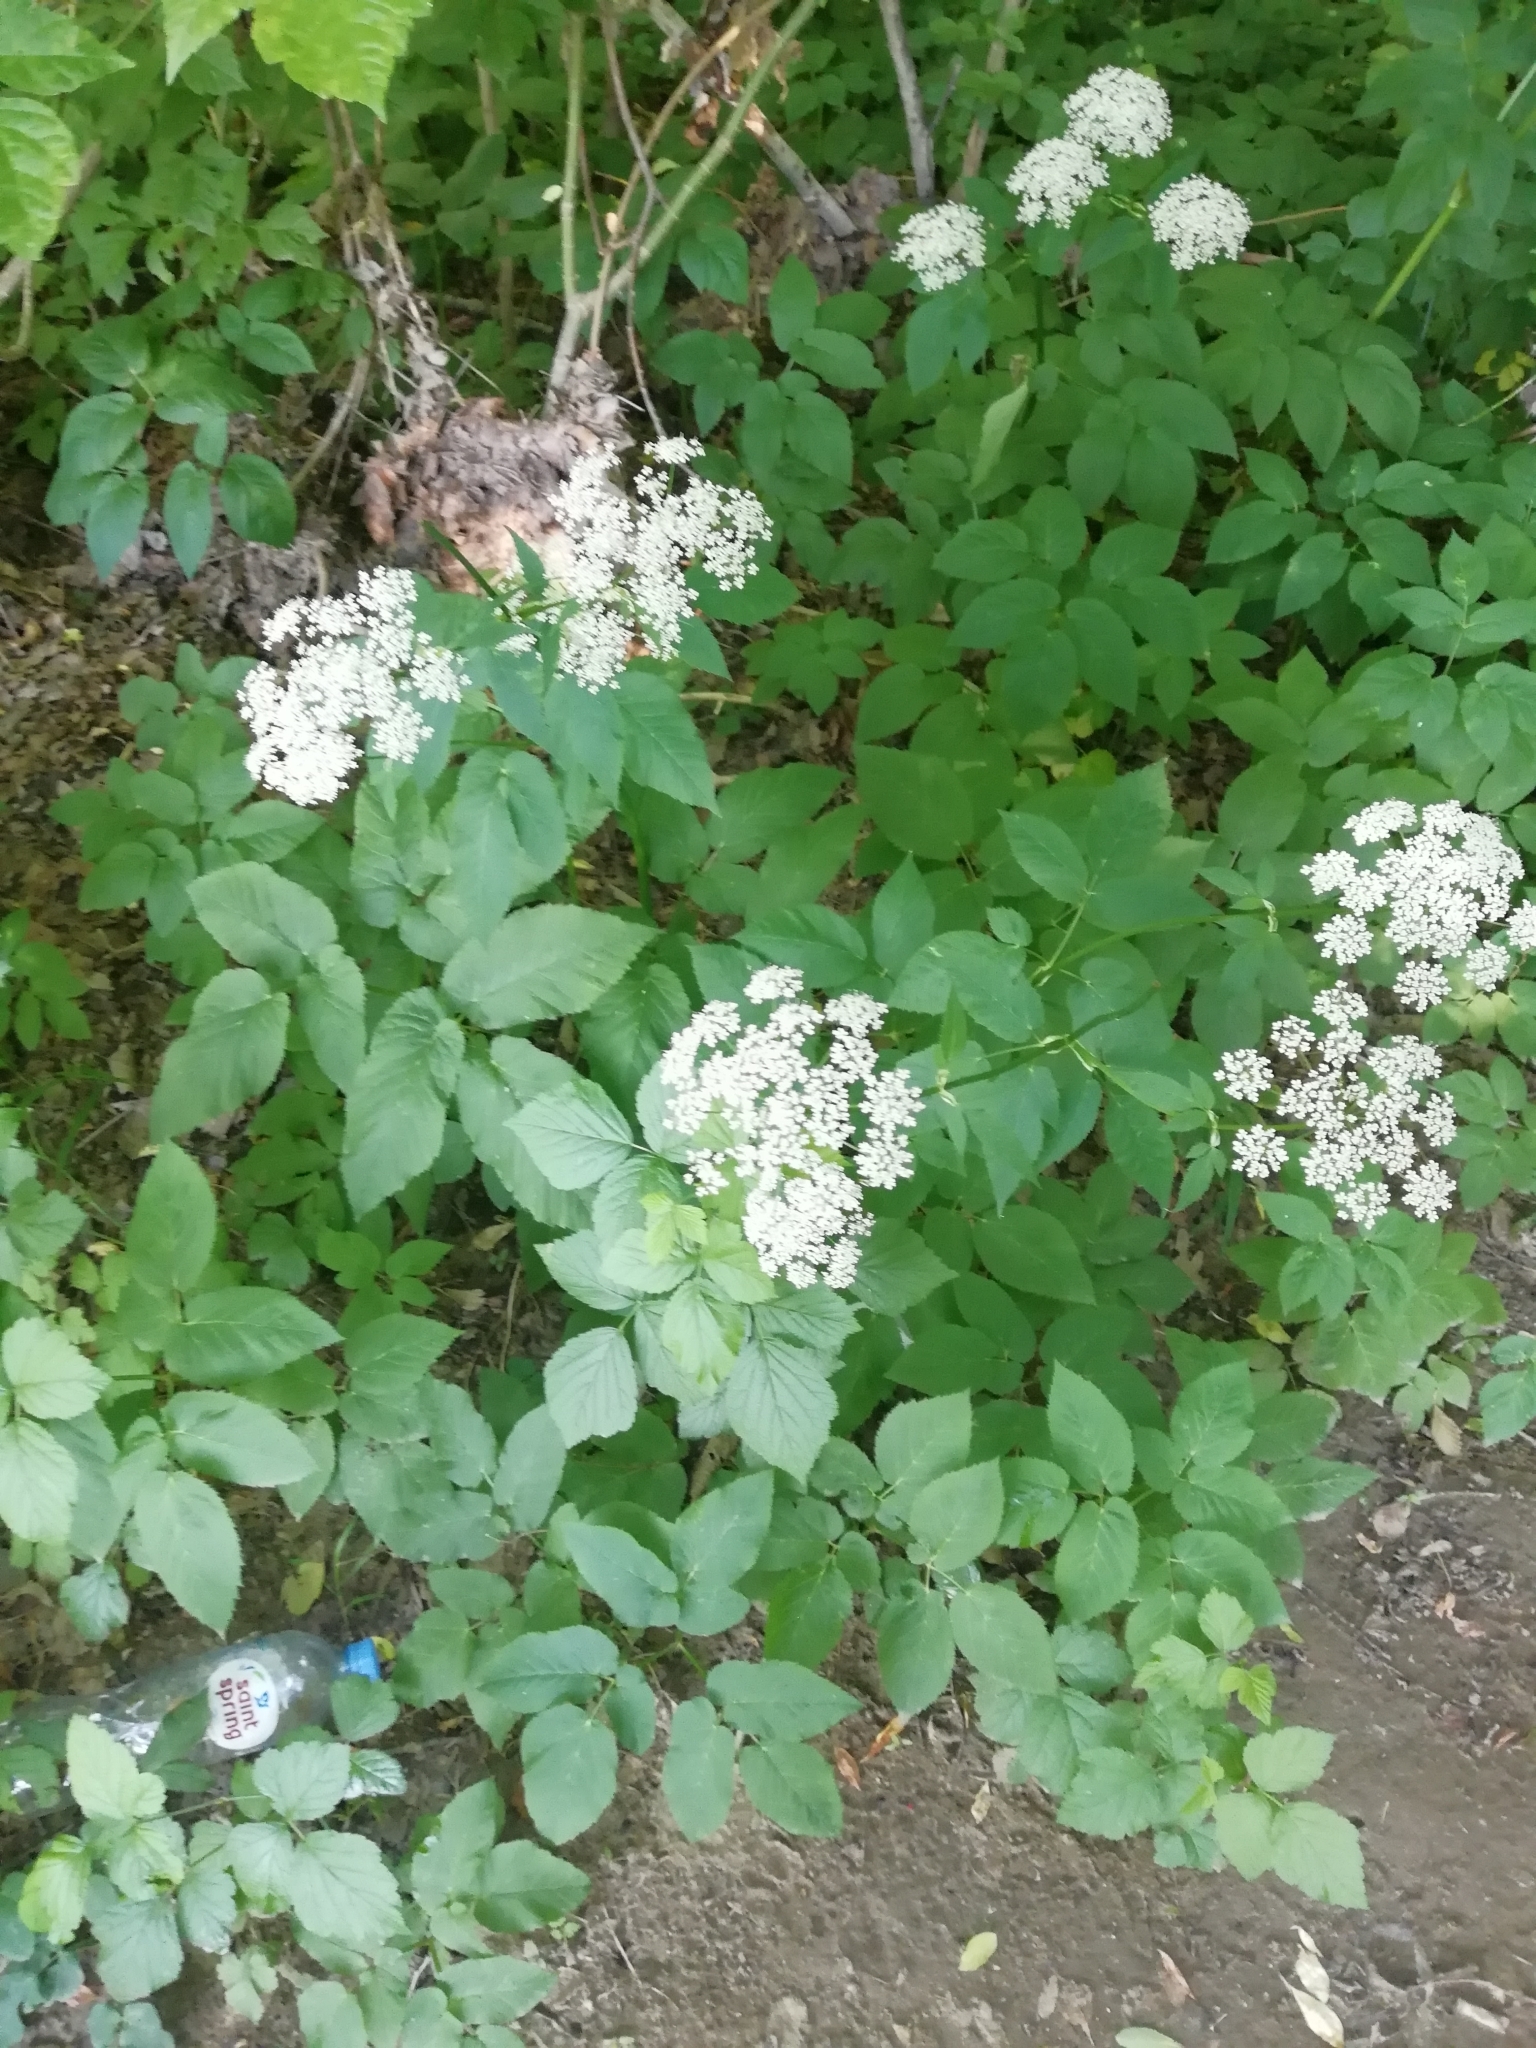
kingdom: Plantae
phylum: Tracheophyta
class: Magnoliopsida
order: Apiales
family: Apiaceae
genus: Aegopodium
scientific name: Aegopodium podagraria
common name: Ground-elder
